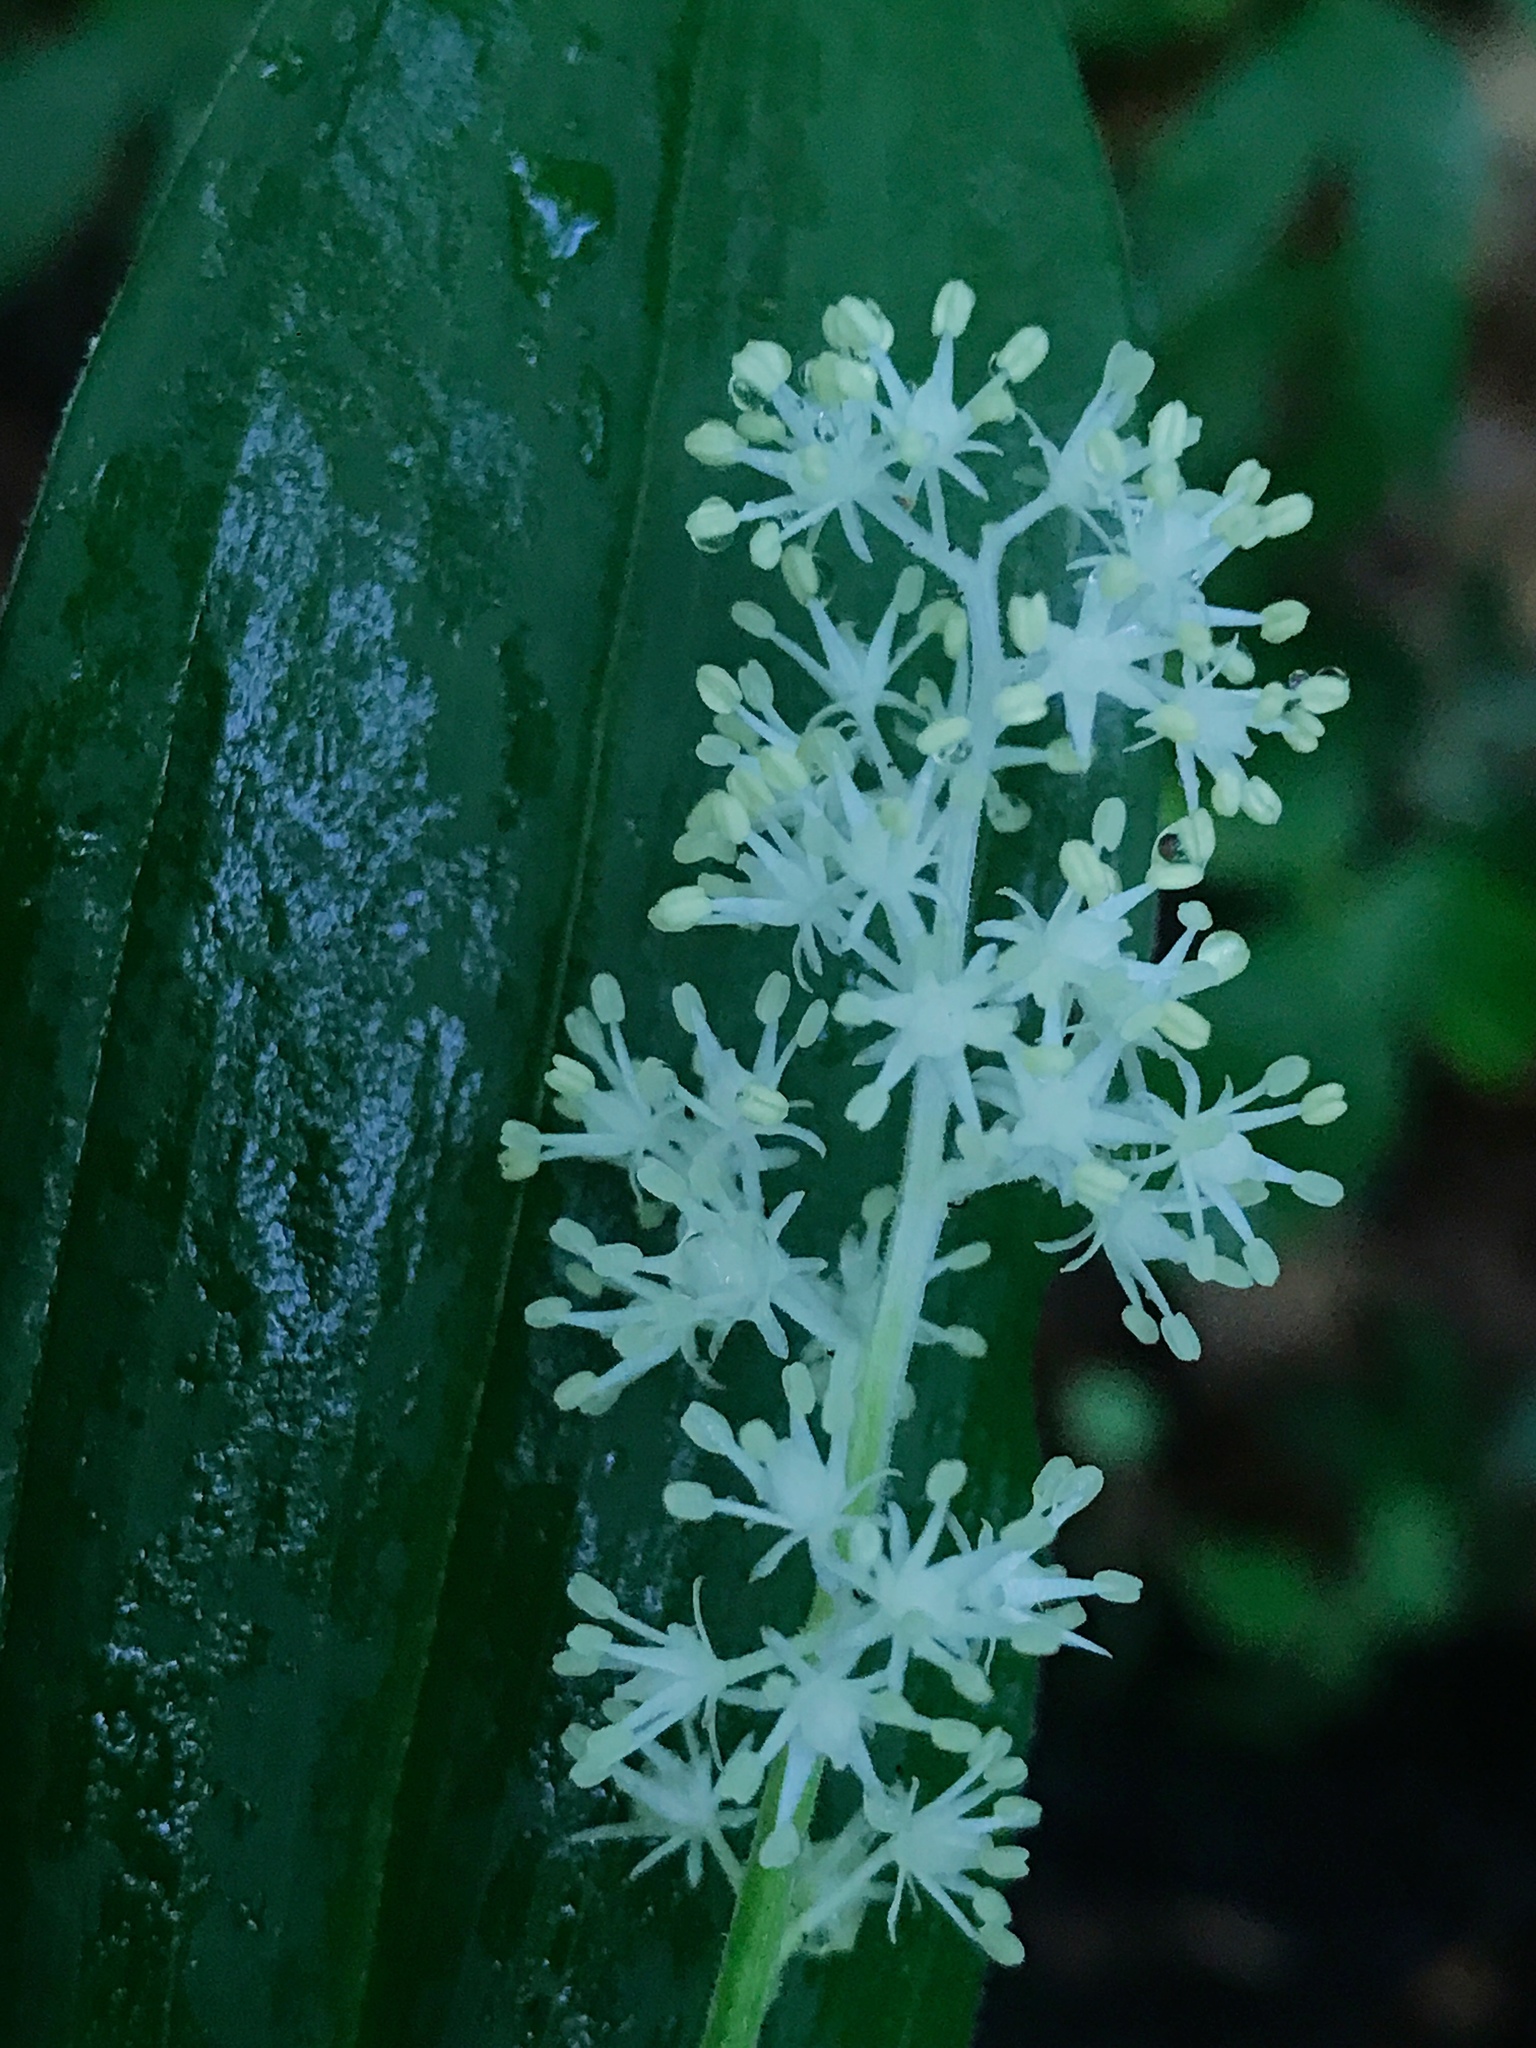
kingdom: Plantae
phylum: Tracheophyta
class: Liliopsida
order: Asparagales
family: Asparagaceae
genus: Maianthemum
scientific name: Maianthemum racemosum
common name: False spikenard
